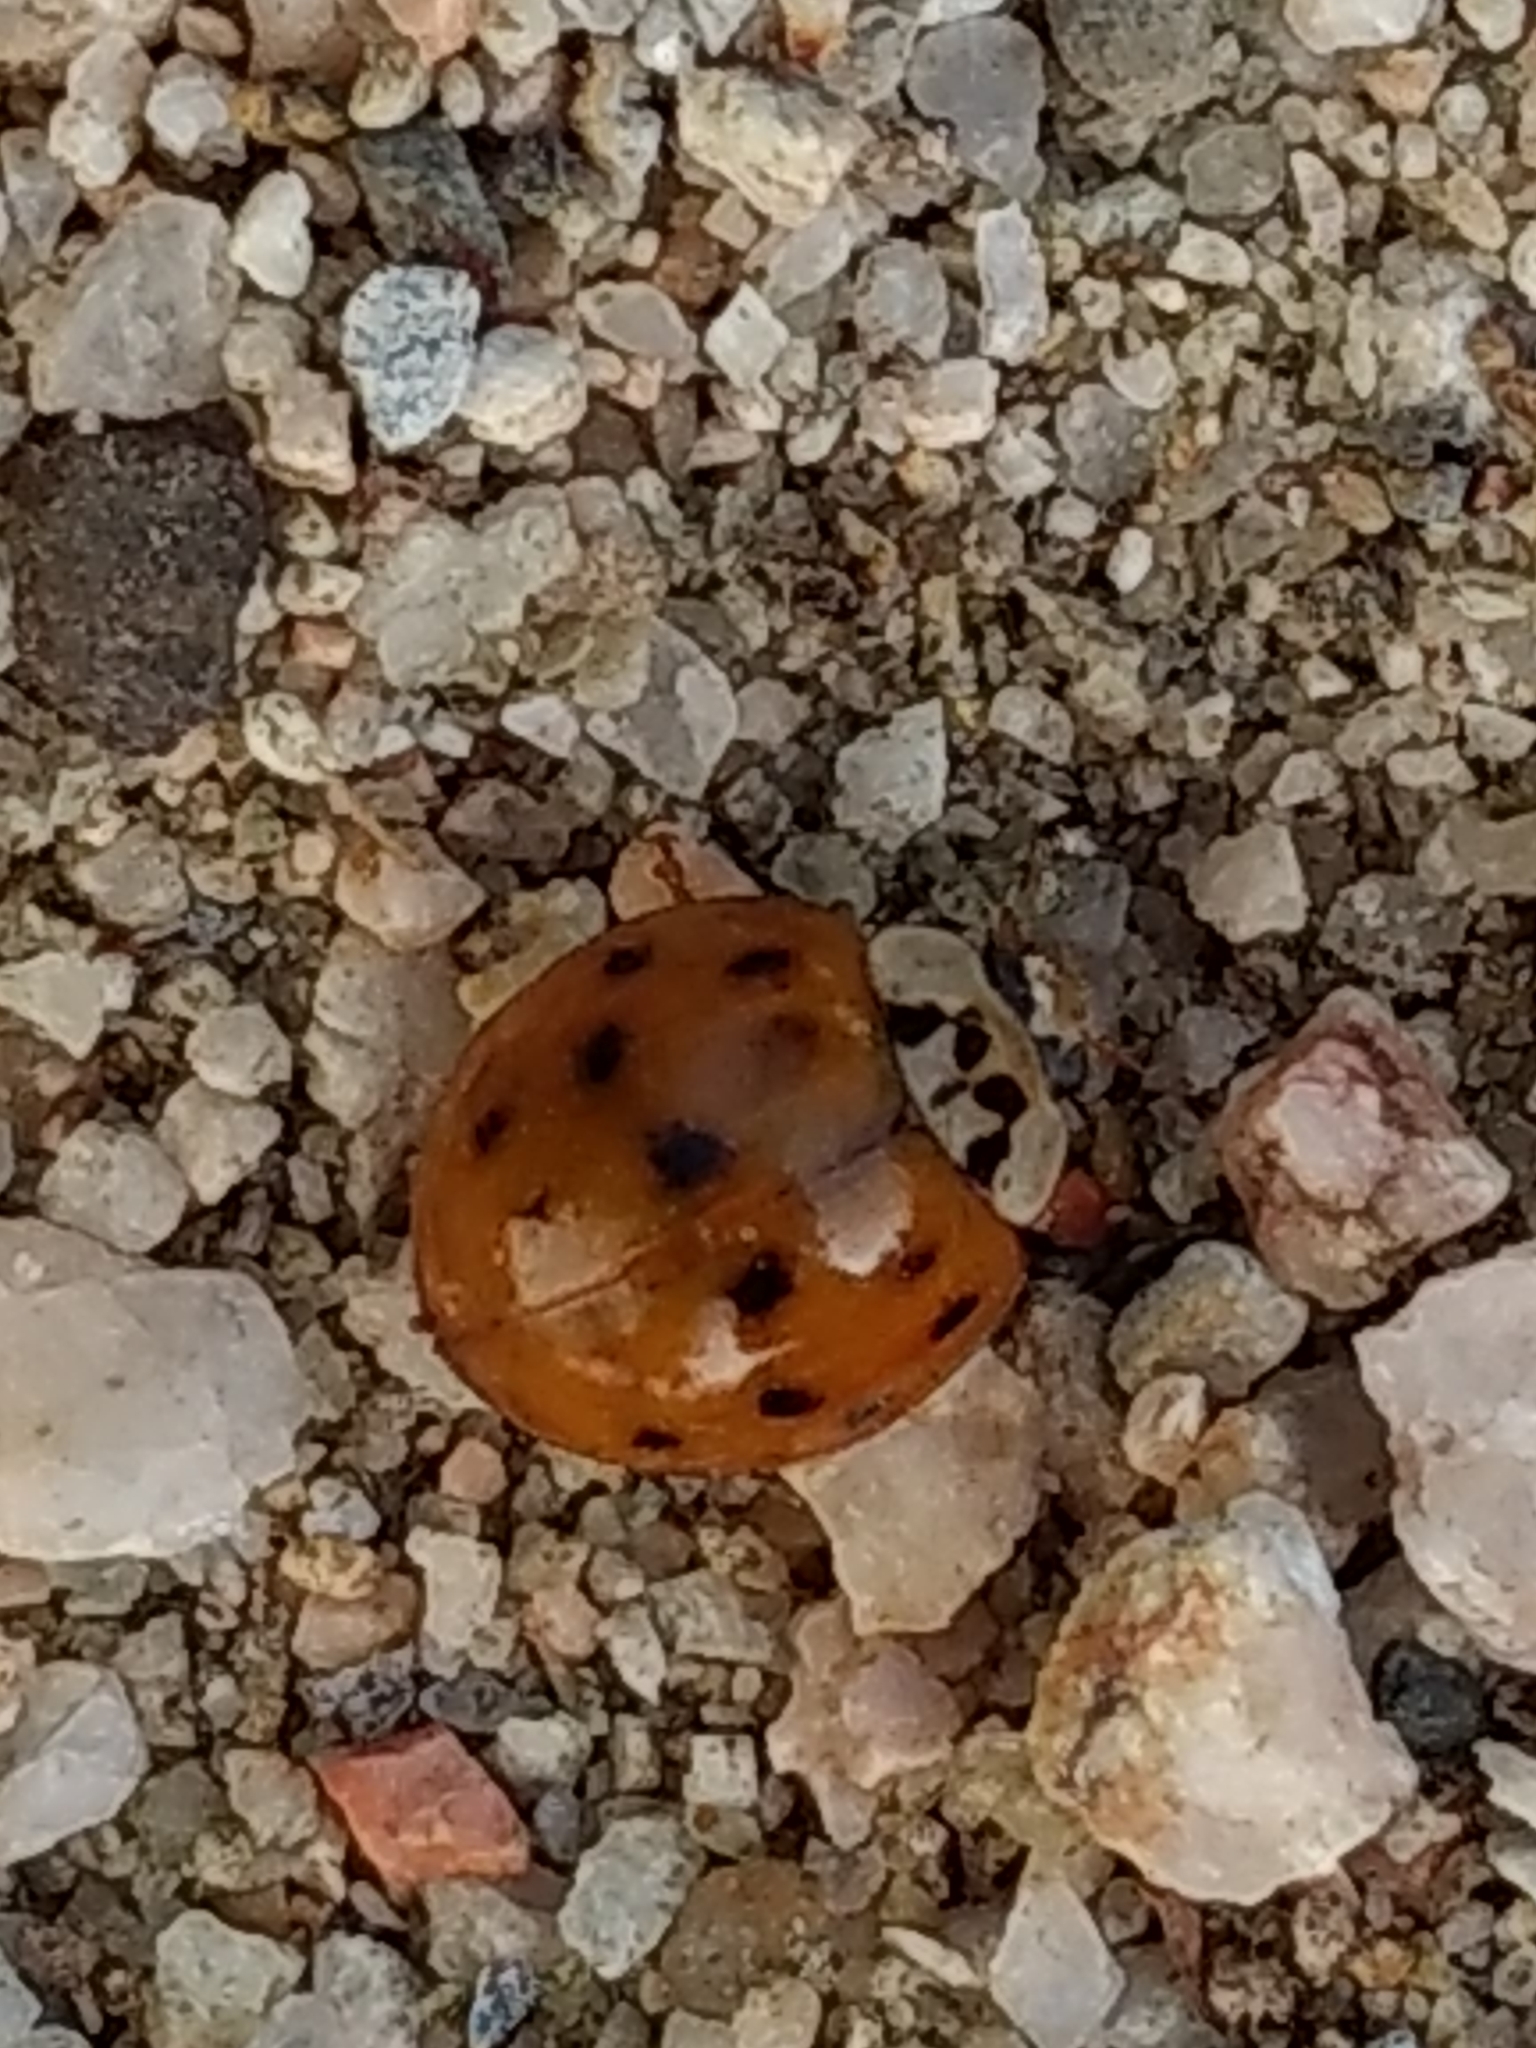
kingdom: Animalia
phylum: Arthropoda
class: Insecta
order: Coleoptera
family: Coccinellidae
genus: Harmonia
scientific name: Harmonia axyridis
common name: Harlequin ladybird
